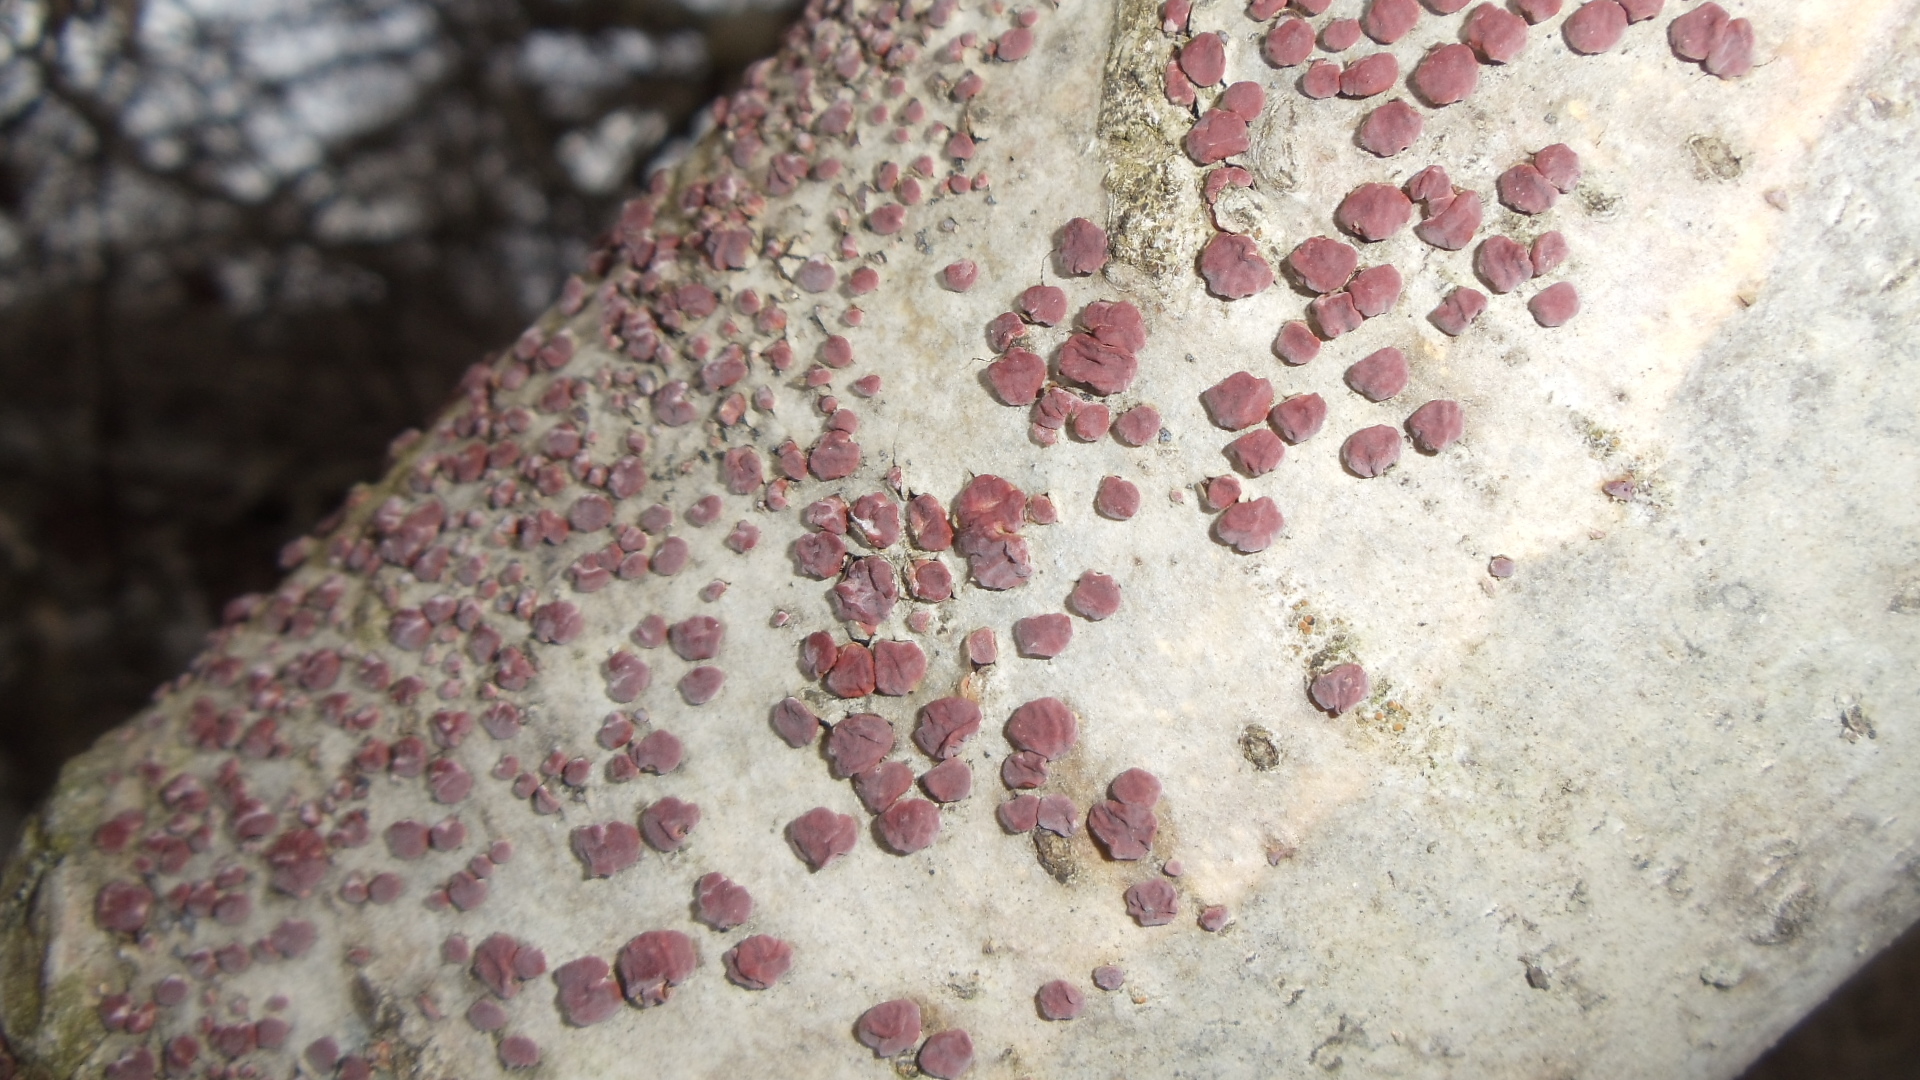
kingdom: Fungi
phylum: Basidiomycota
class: Agaricomycetes
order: Russulales
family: Peniophoraceae
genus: Peniophora
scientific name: Peniophora rufa
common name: Red tree brain fungus
